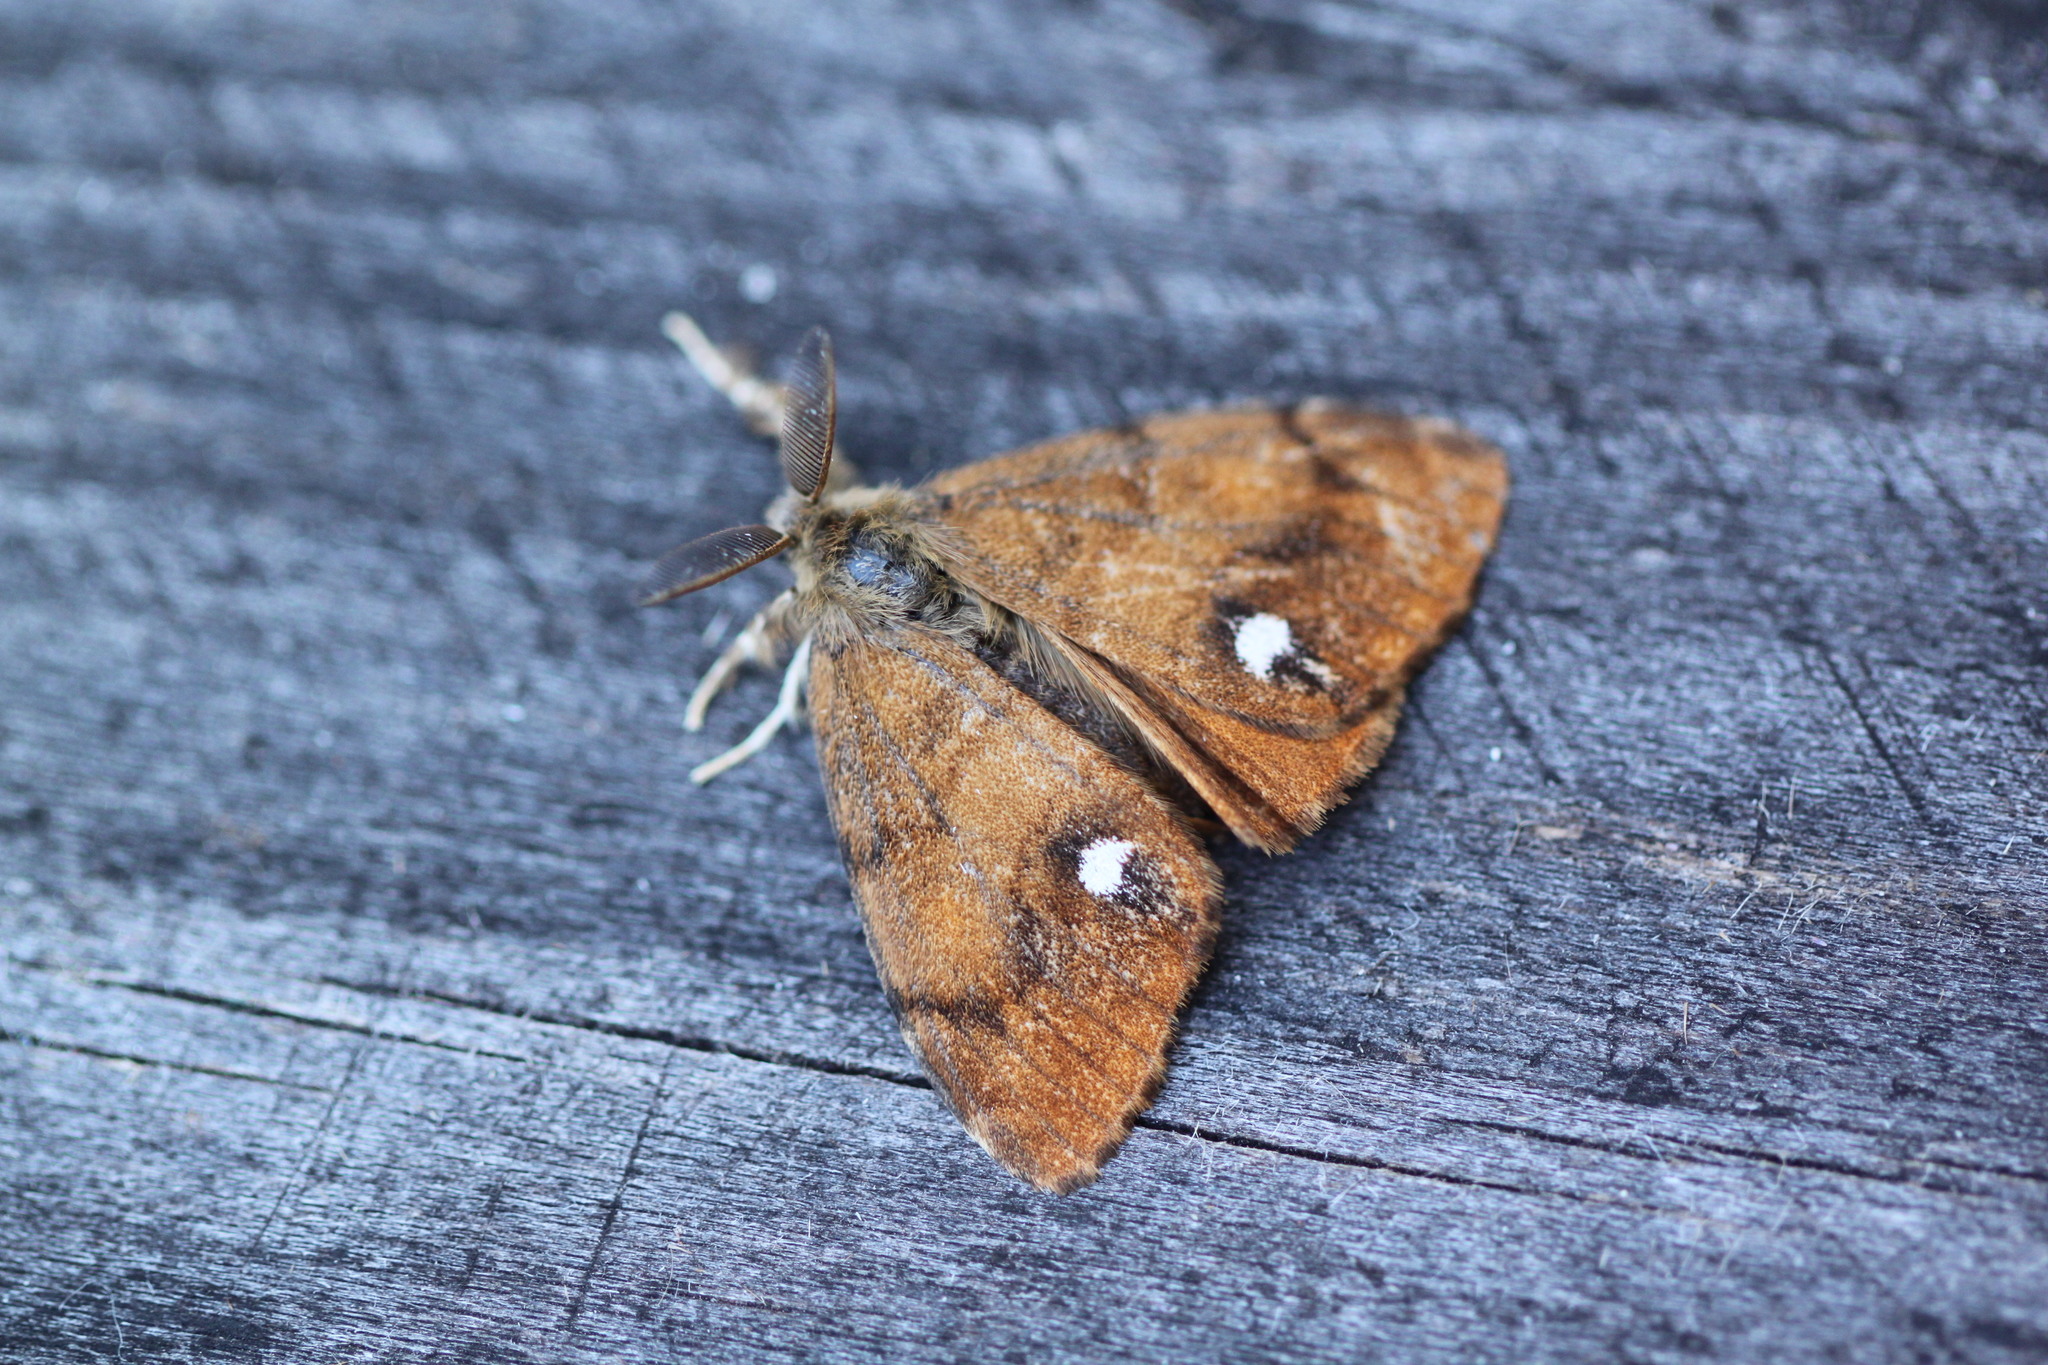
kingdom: Animalia
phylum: Arthropoda
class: Insecta
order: Lepidoptera
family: Erebidae
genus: Orgyia
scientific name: Orgyia antiqua
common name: Vapourer
